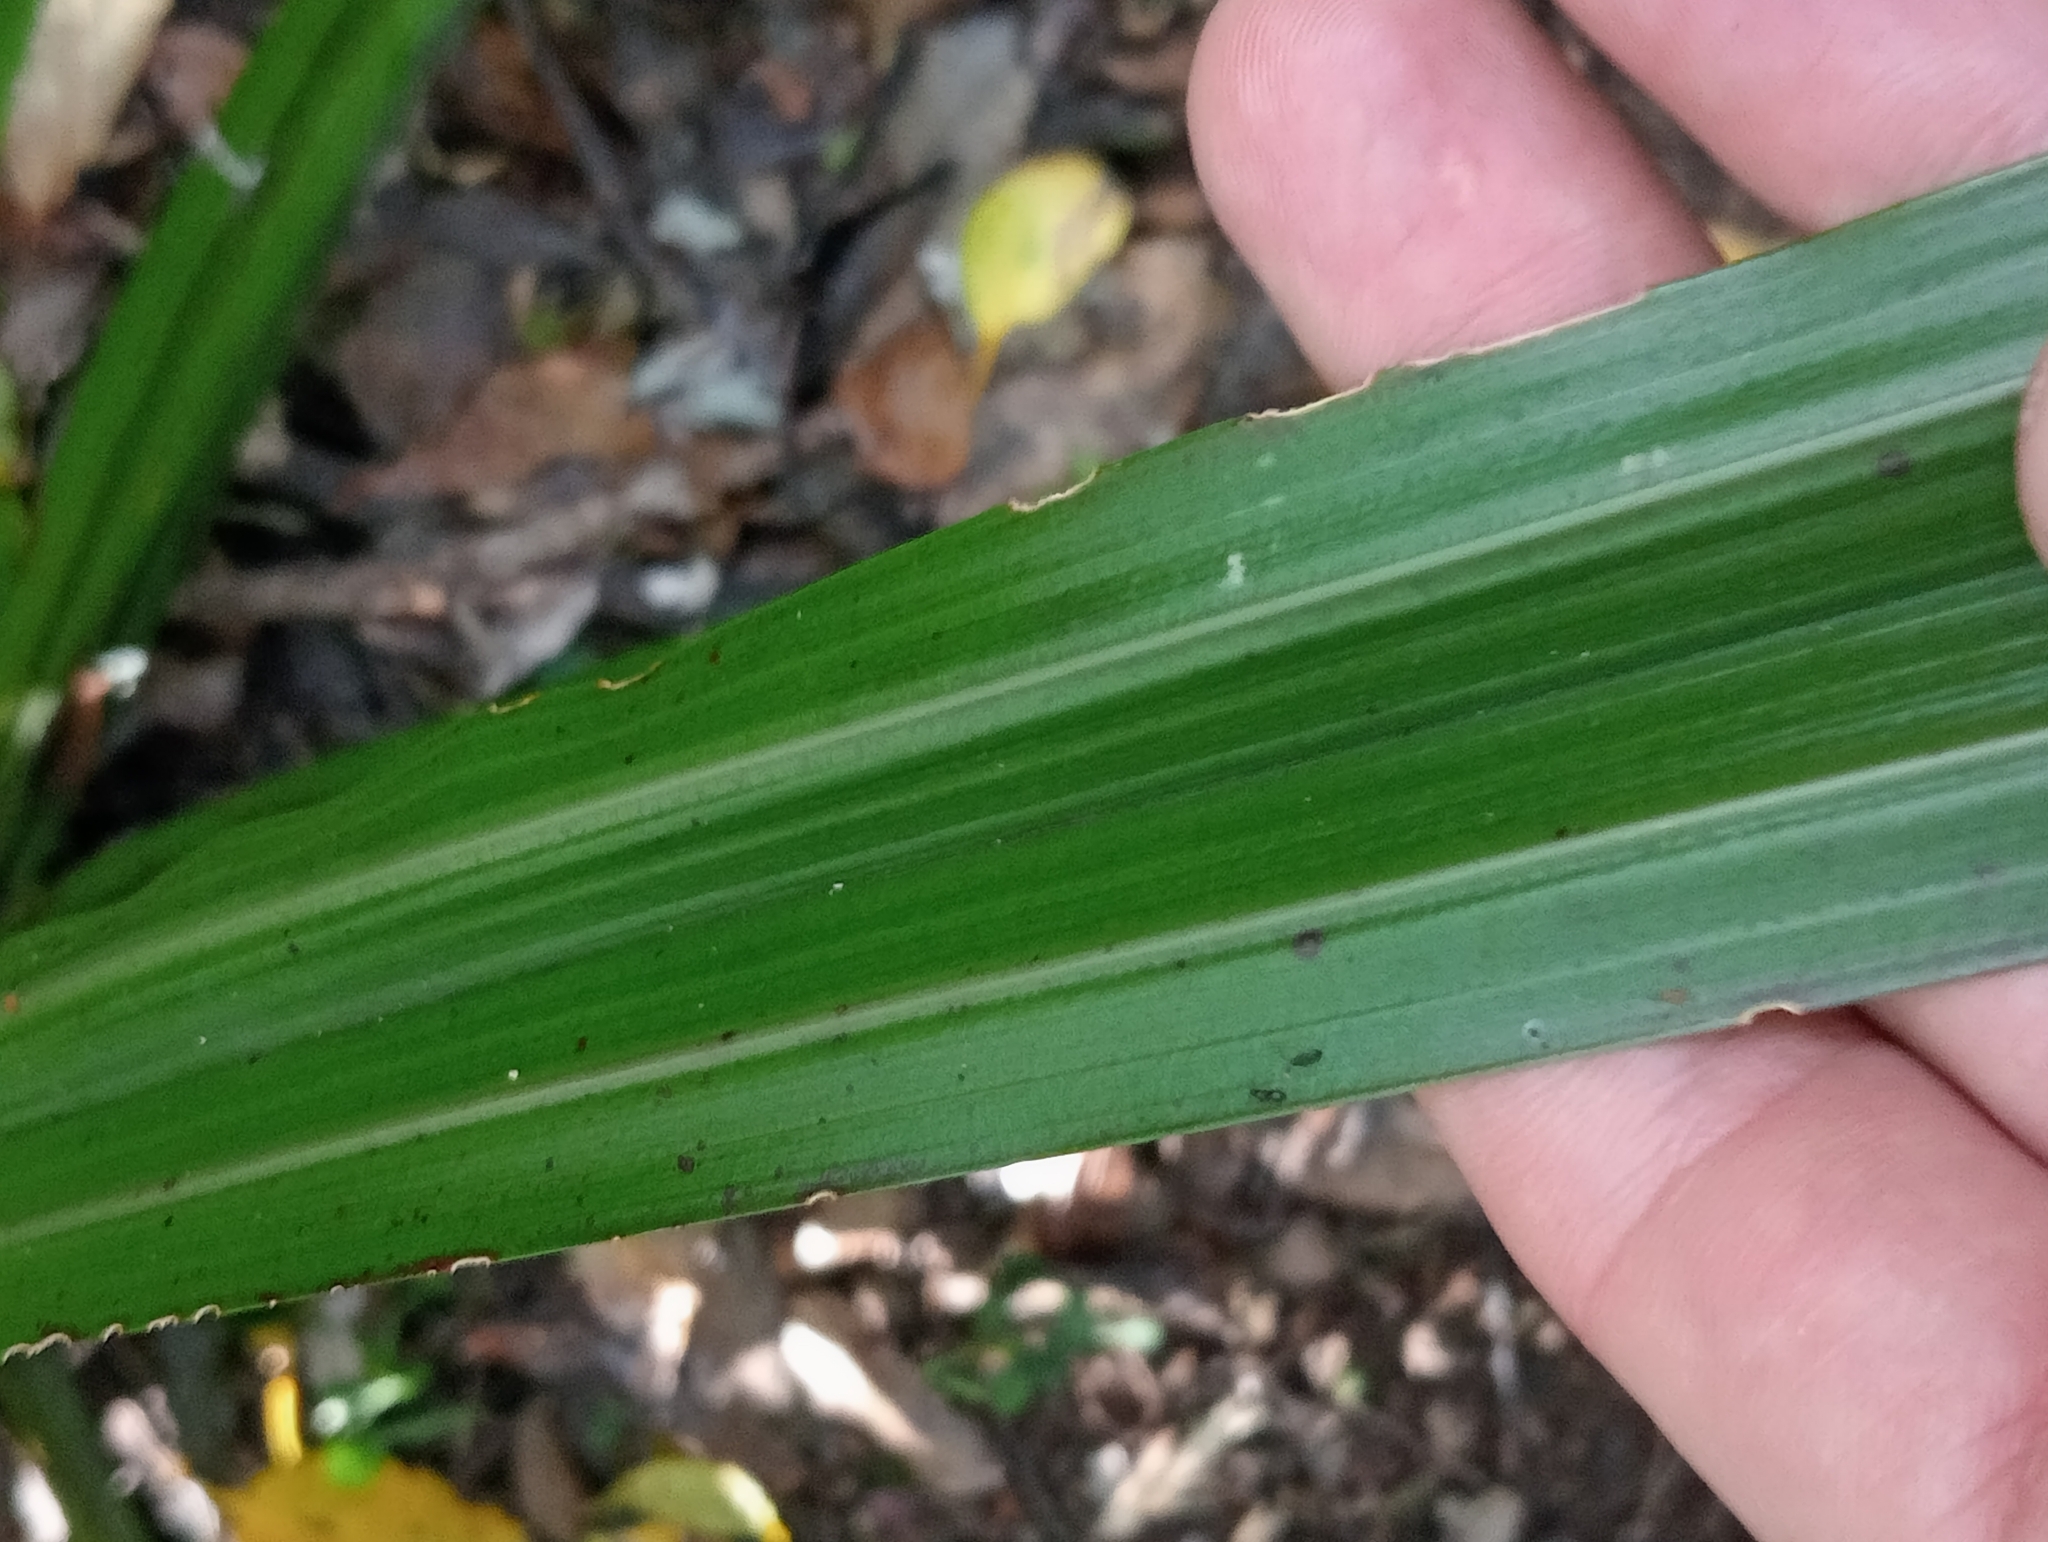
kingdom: Plantae
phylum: Tracheophyta
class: Liliopsida
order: Asparagales
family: Asteliaceae
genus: Astelia
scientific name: Astelia fragrans
